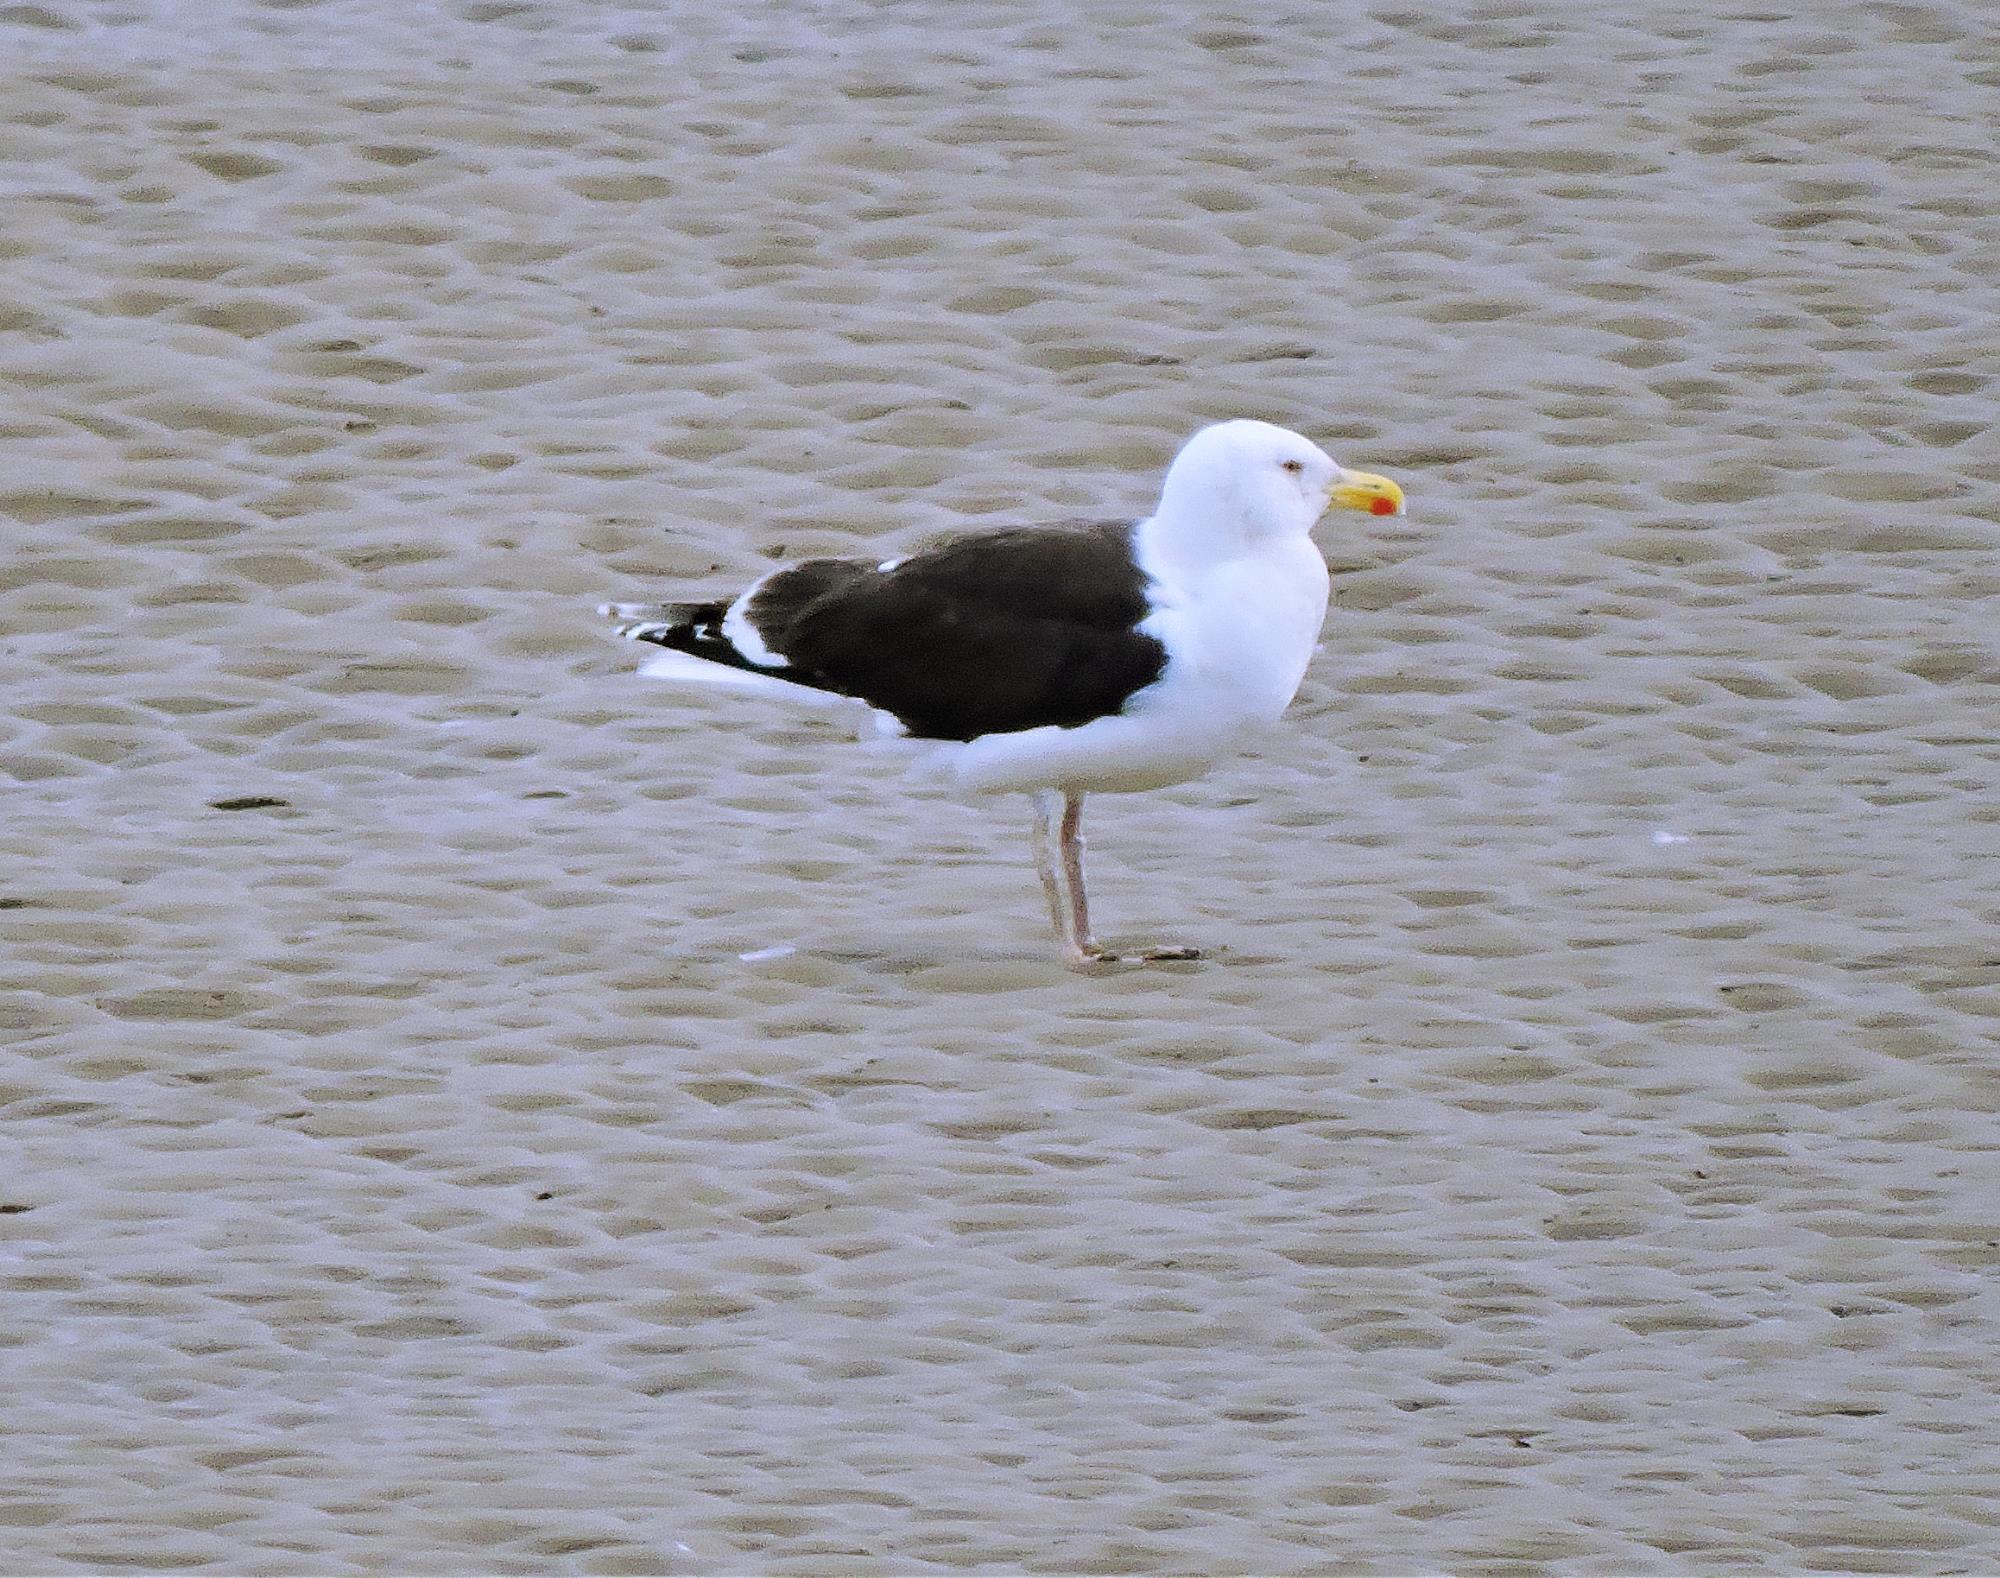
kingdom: Animalia
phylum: Chordata
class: Aves
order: Charadriiformes
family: Laridae
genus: Larus
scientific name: Larus marinus
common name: Great black-backed gull
